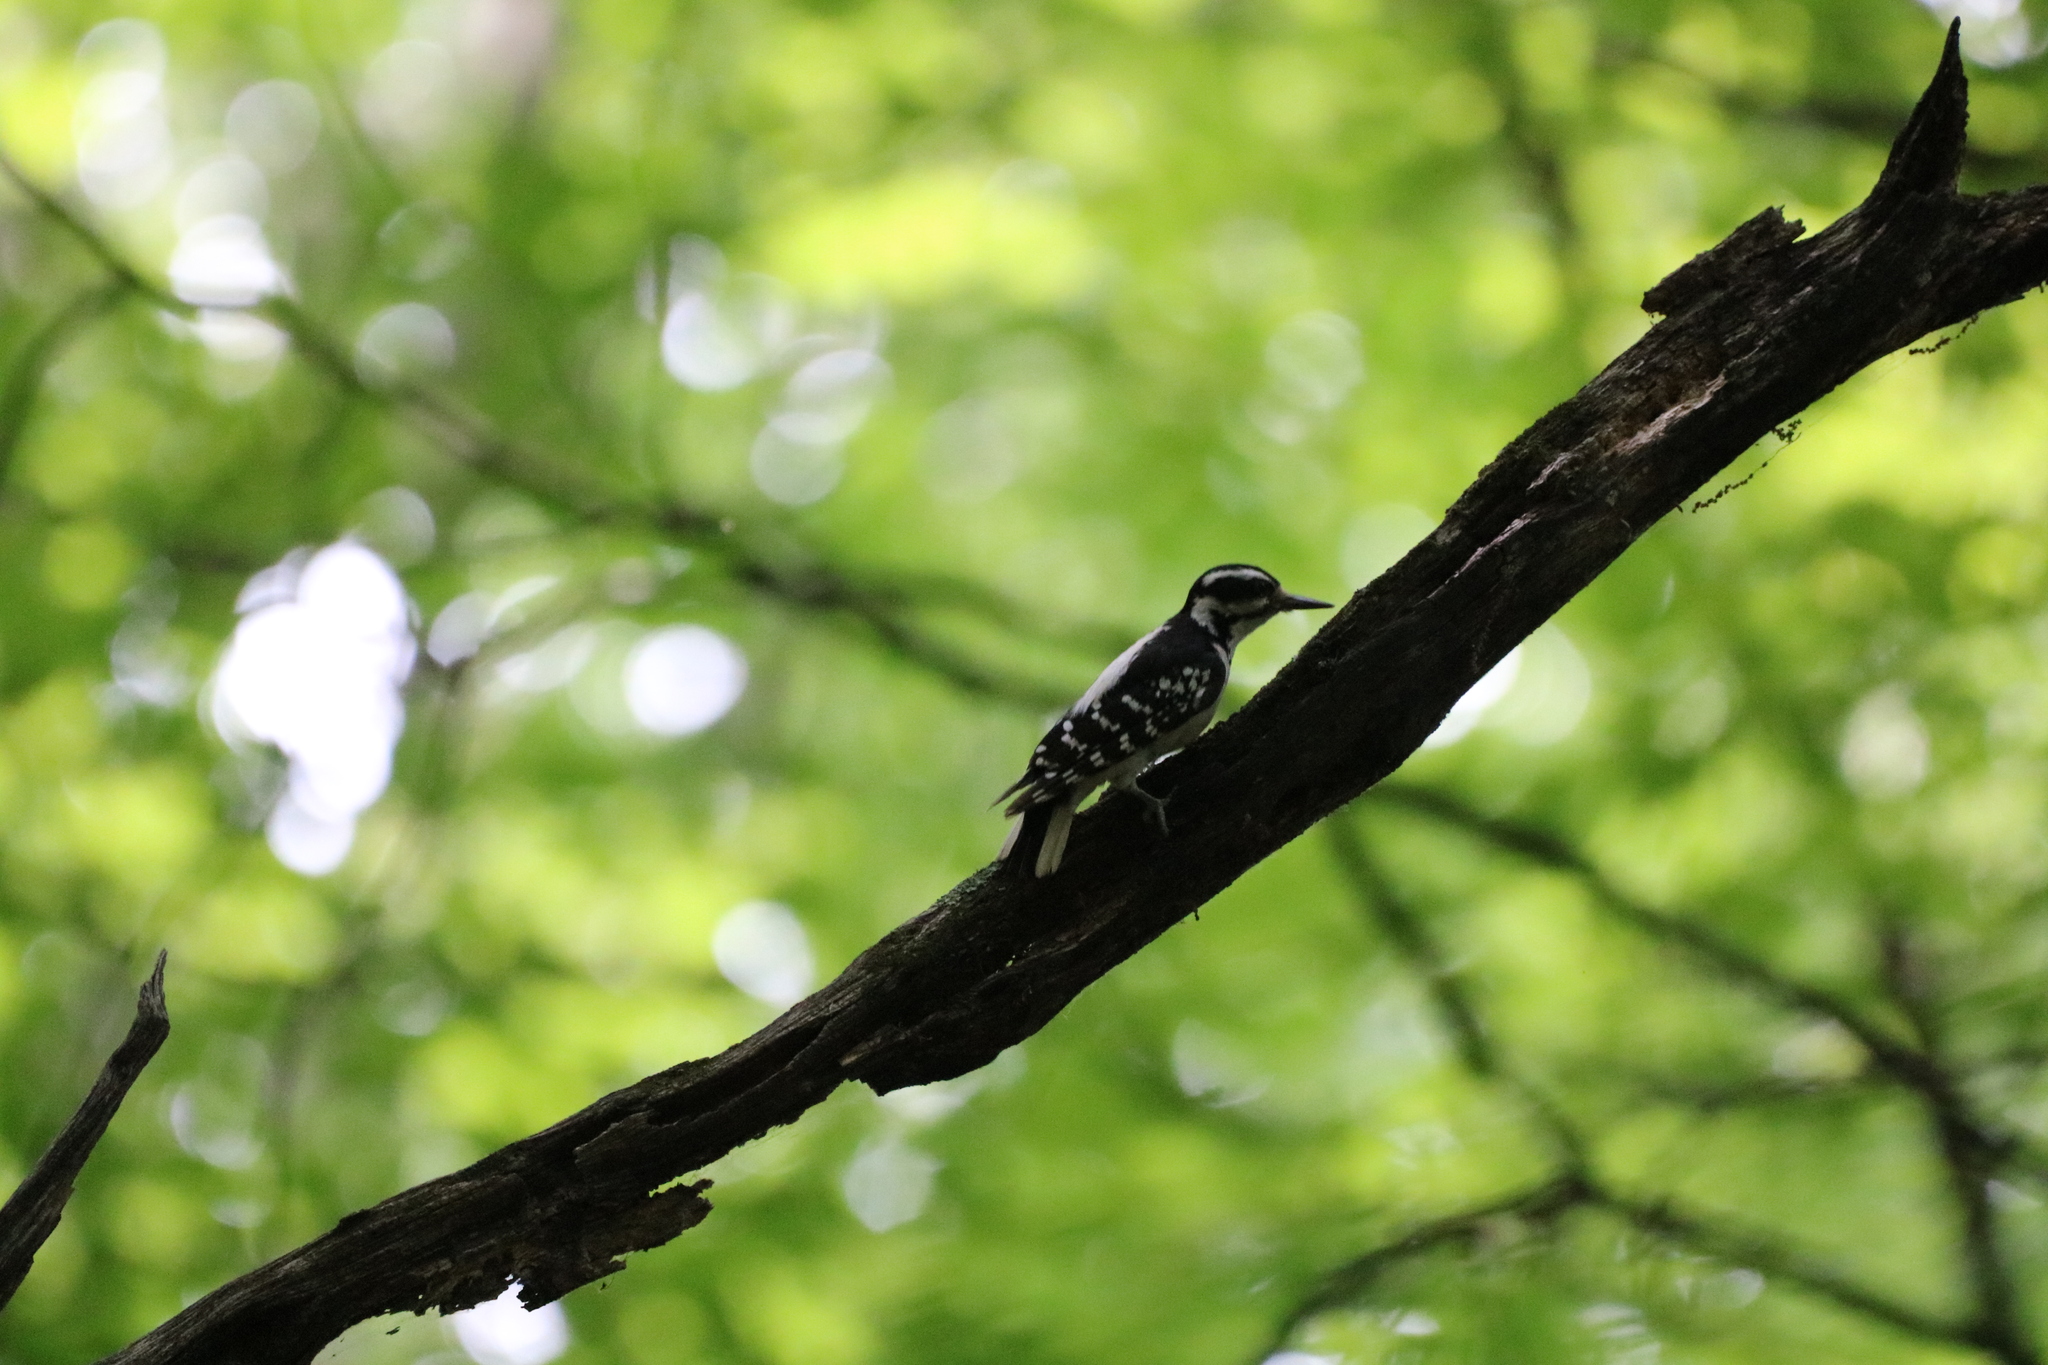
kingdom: Animalia
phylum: Chordata
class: Aves
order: Piciformes
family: Picidae
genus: Leuconotopicus
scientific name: Leuconotopicus villosus
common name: Hairy woodpecker
